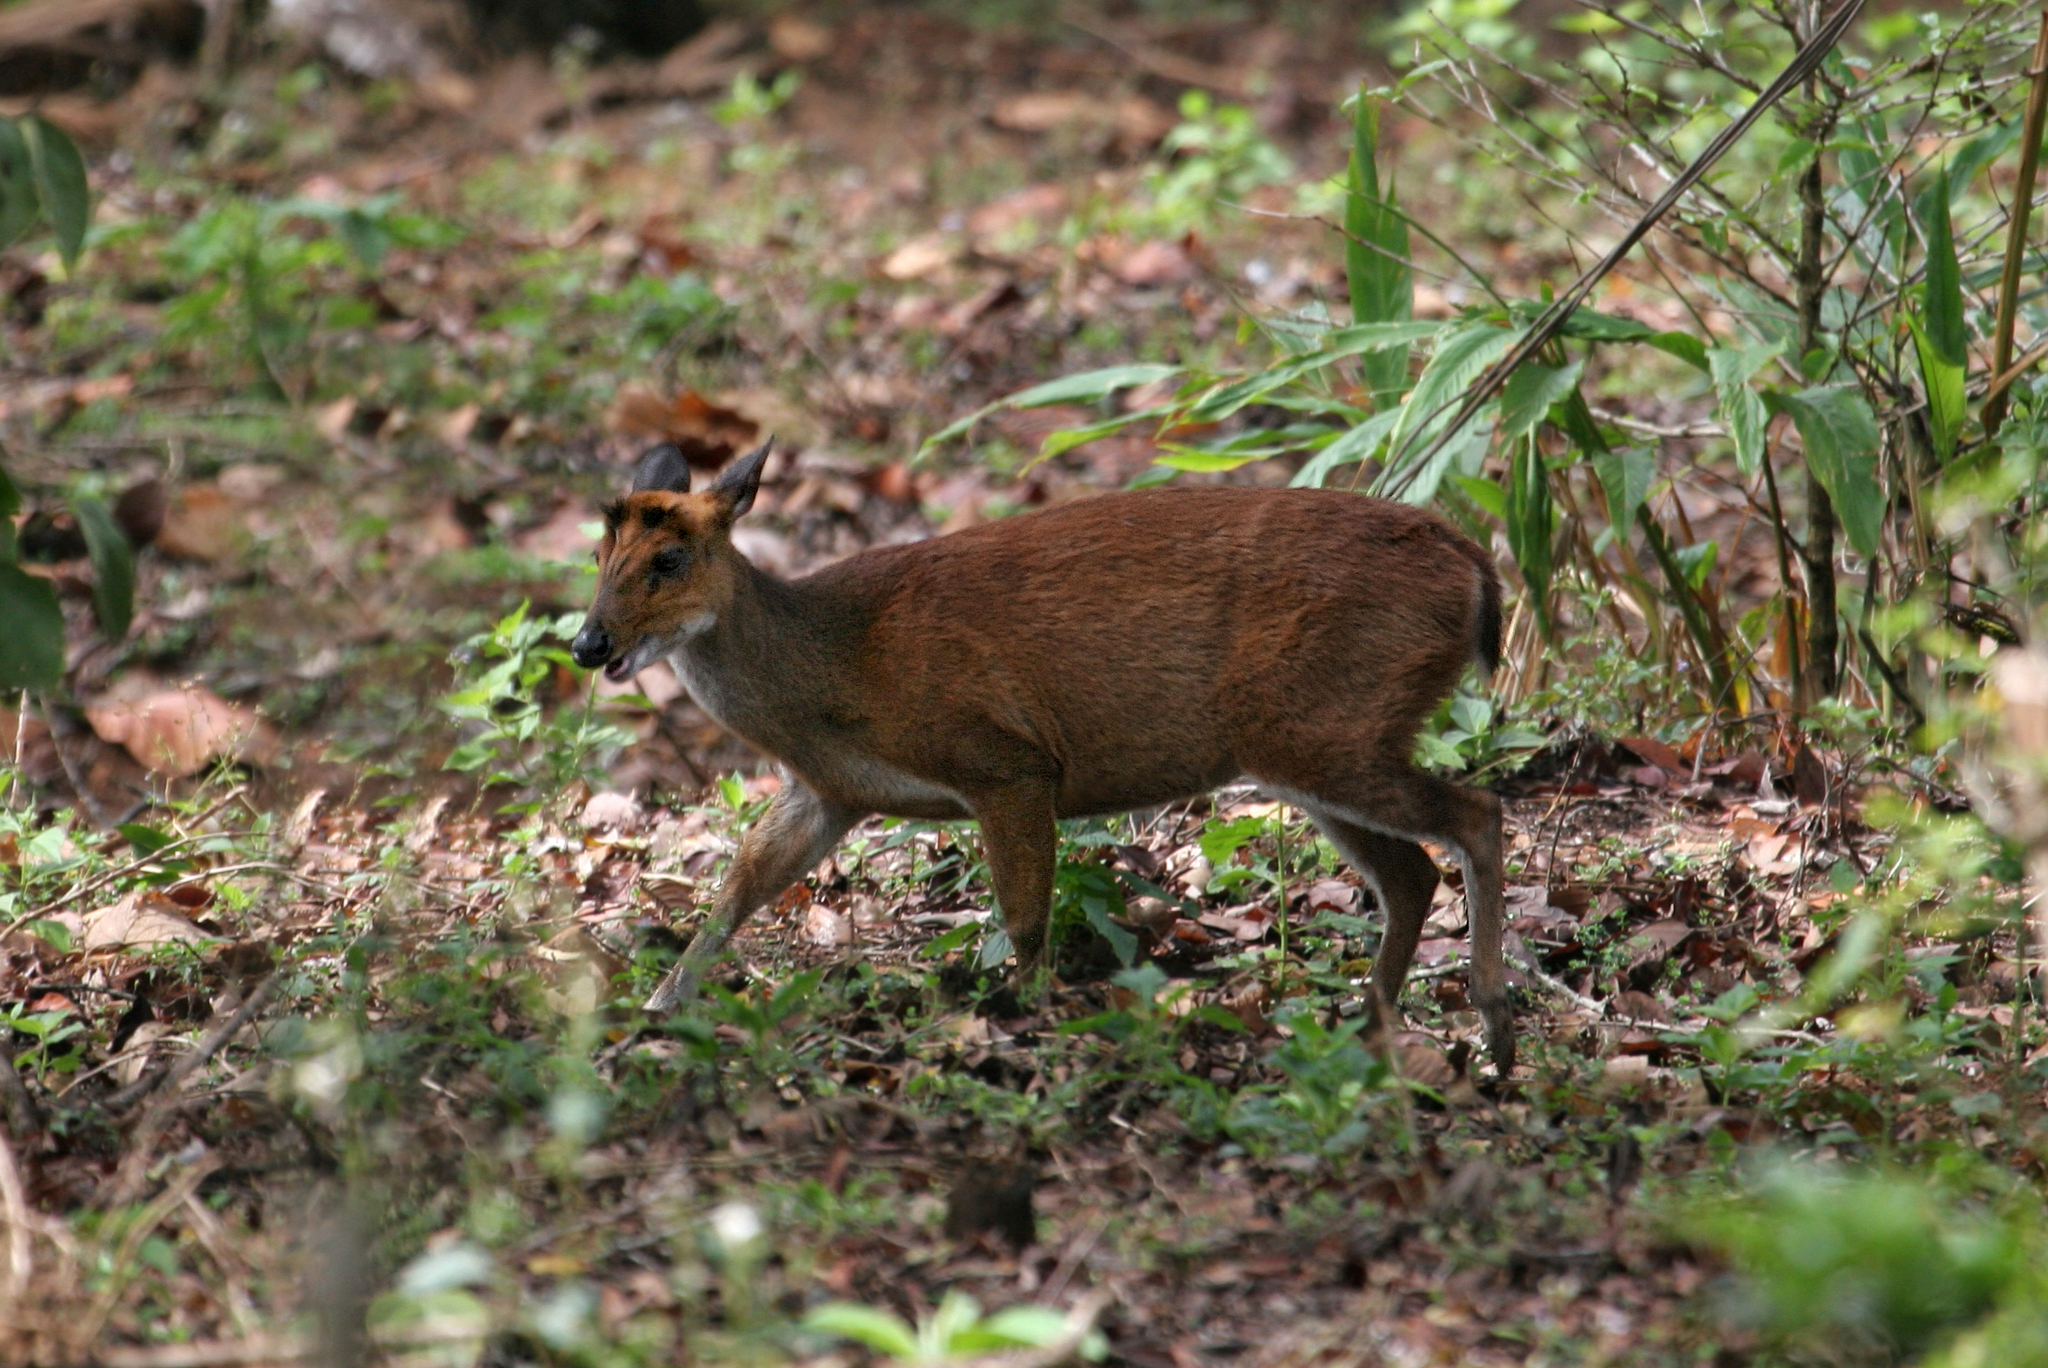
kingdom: Animalia
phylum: Chordata
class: Mammalia
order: Artiodactyla
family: Cervidae
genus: Muntiacus
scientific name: Muntiacus muntjak
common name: Indian muntjac
